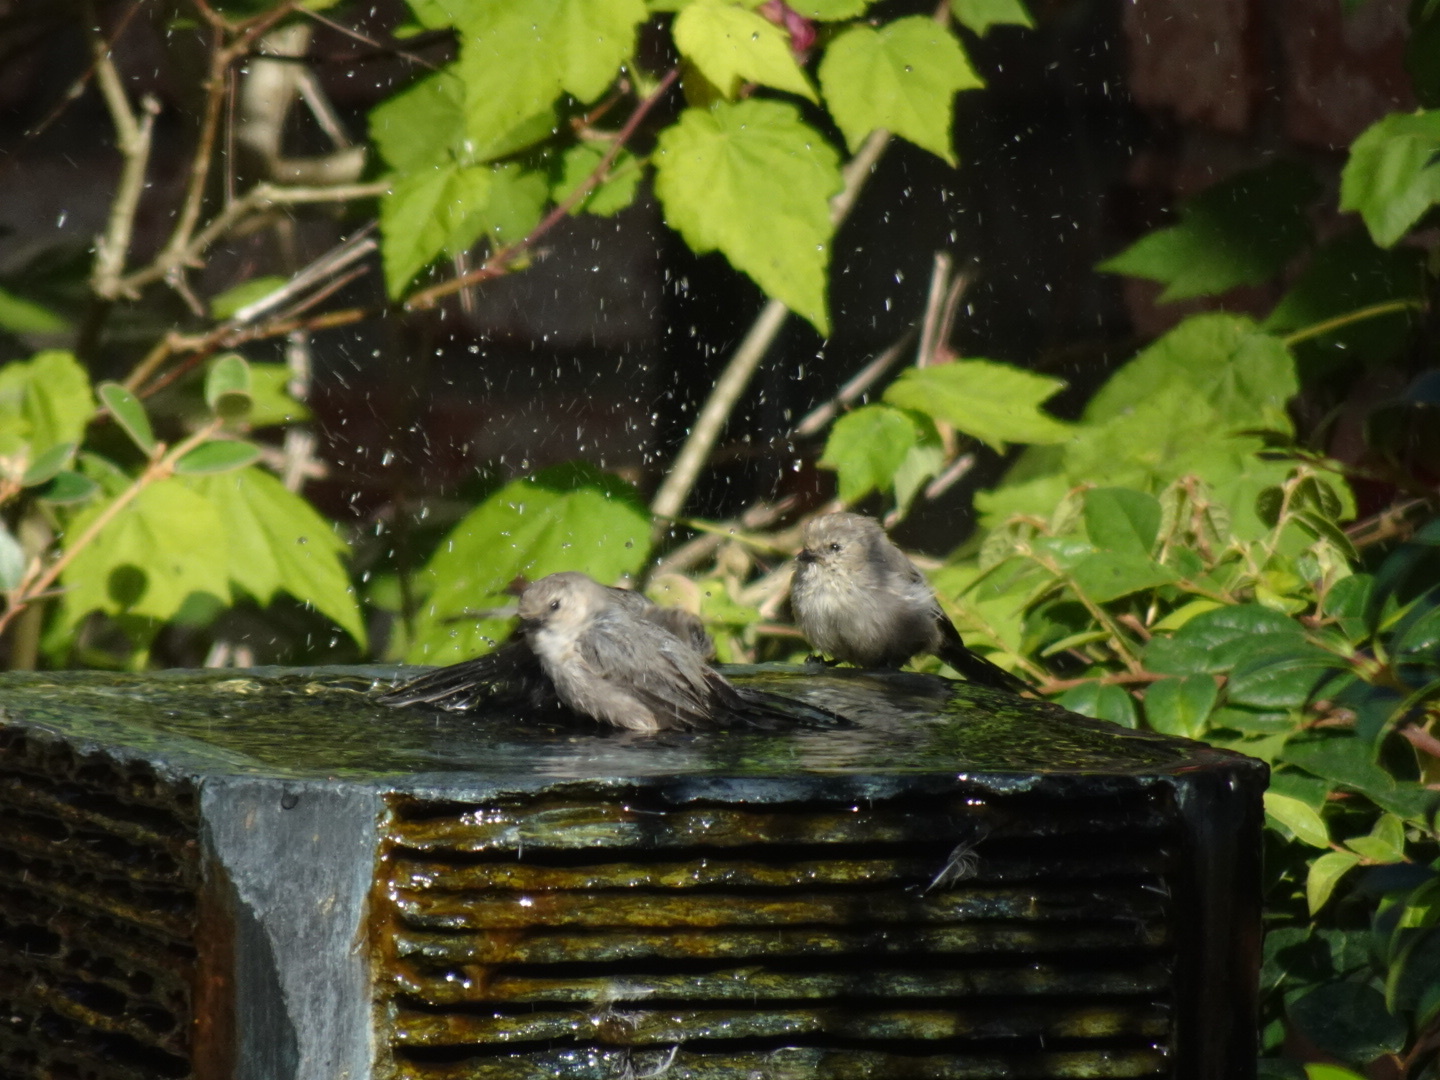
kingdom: Animalia
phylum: Chordata
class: Aves
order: Passeriformes
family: Aegithalidae
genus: Psaltriparus
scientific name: Psaltriparus minimus
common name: American bushtit
